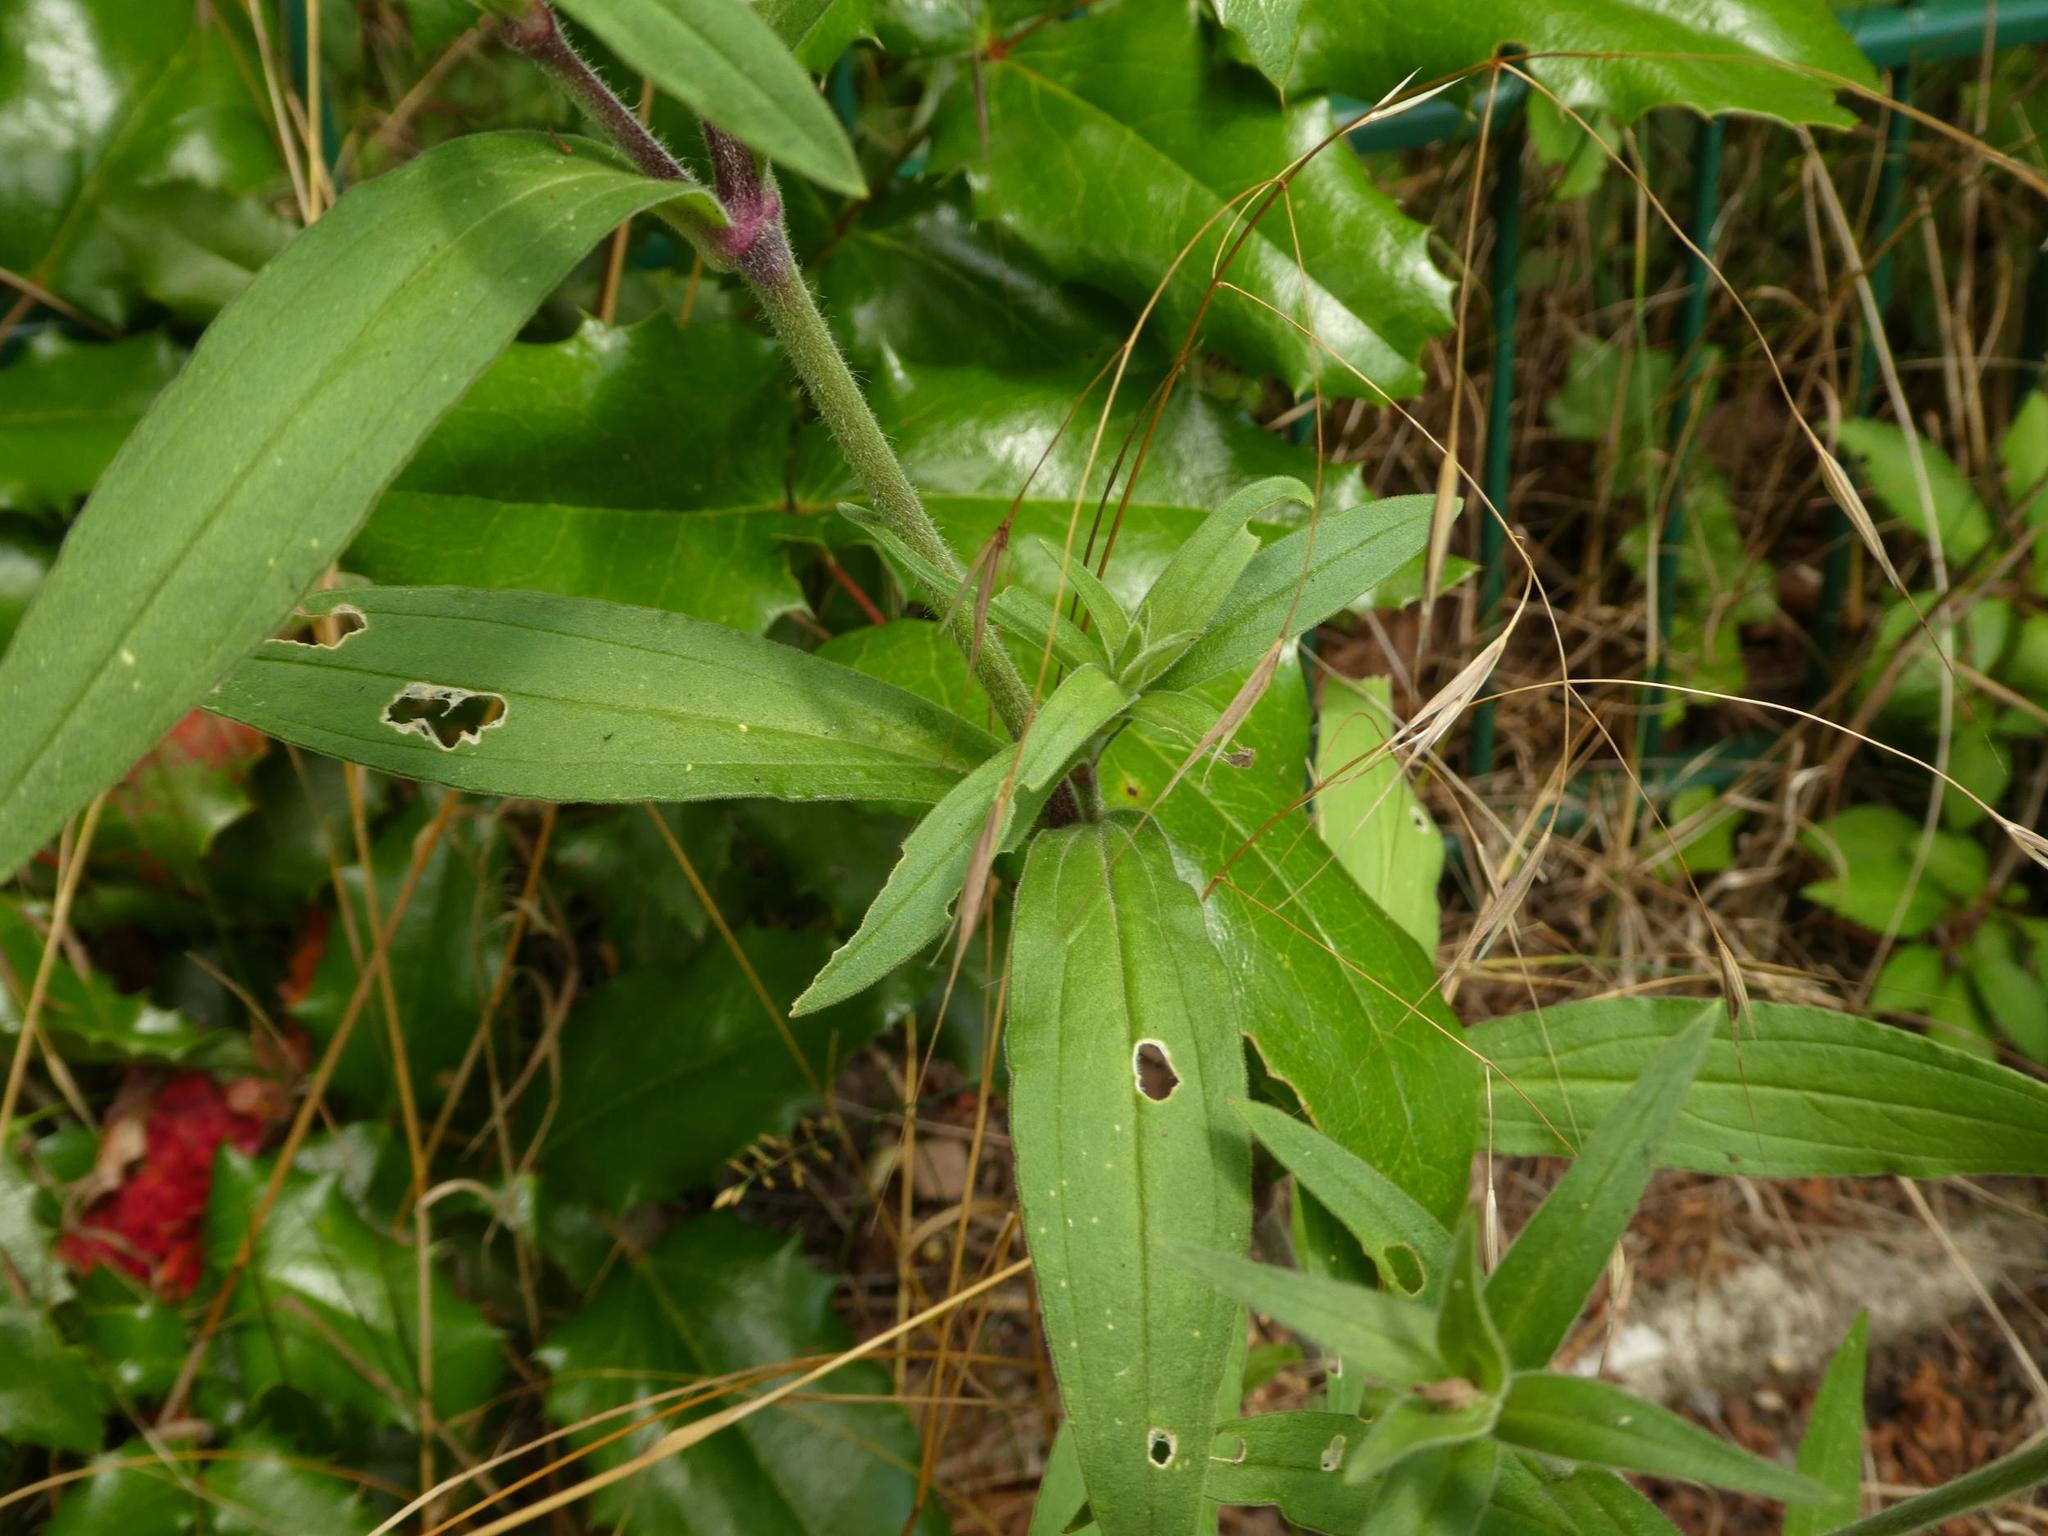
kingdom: Plantae
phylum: Tracheophyta
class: Magnoliopsida
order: Caryophyllales
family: Caryophyllaceae
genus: Silene
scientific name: Silene latifolia
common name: White campion
